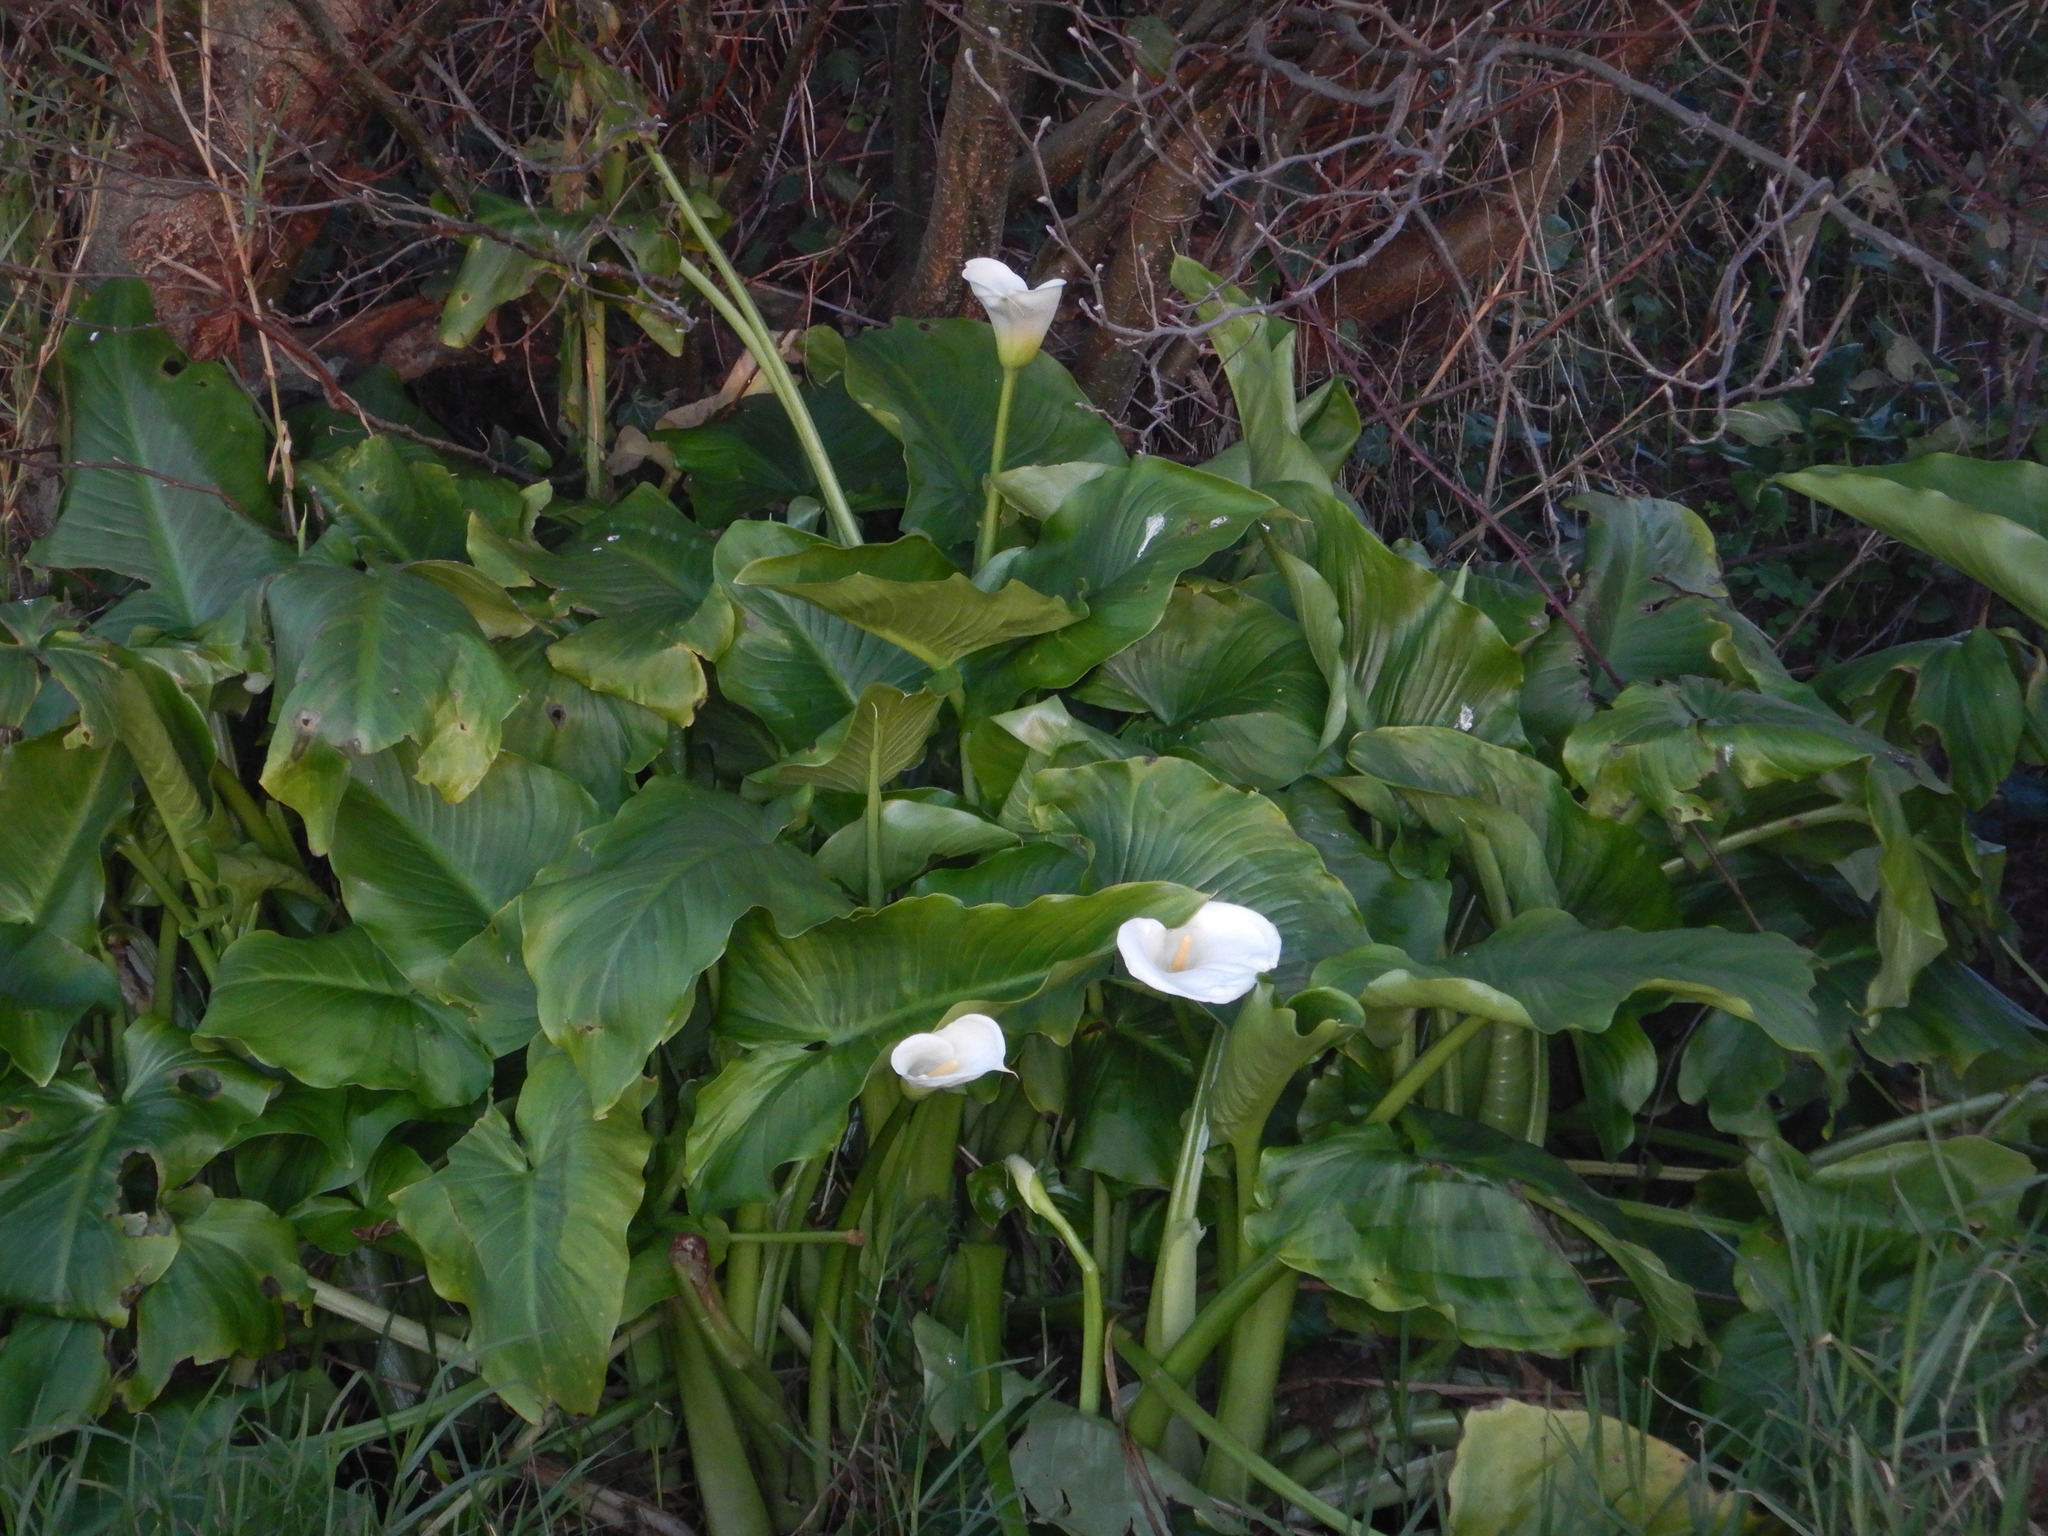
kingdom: Plantae
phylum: Tracheophyta
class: Liliopsida
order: Alismatales
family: Araceae
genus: Zantedeschia
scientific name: Zantedeschia aethiopica
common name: Altar-lily
